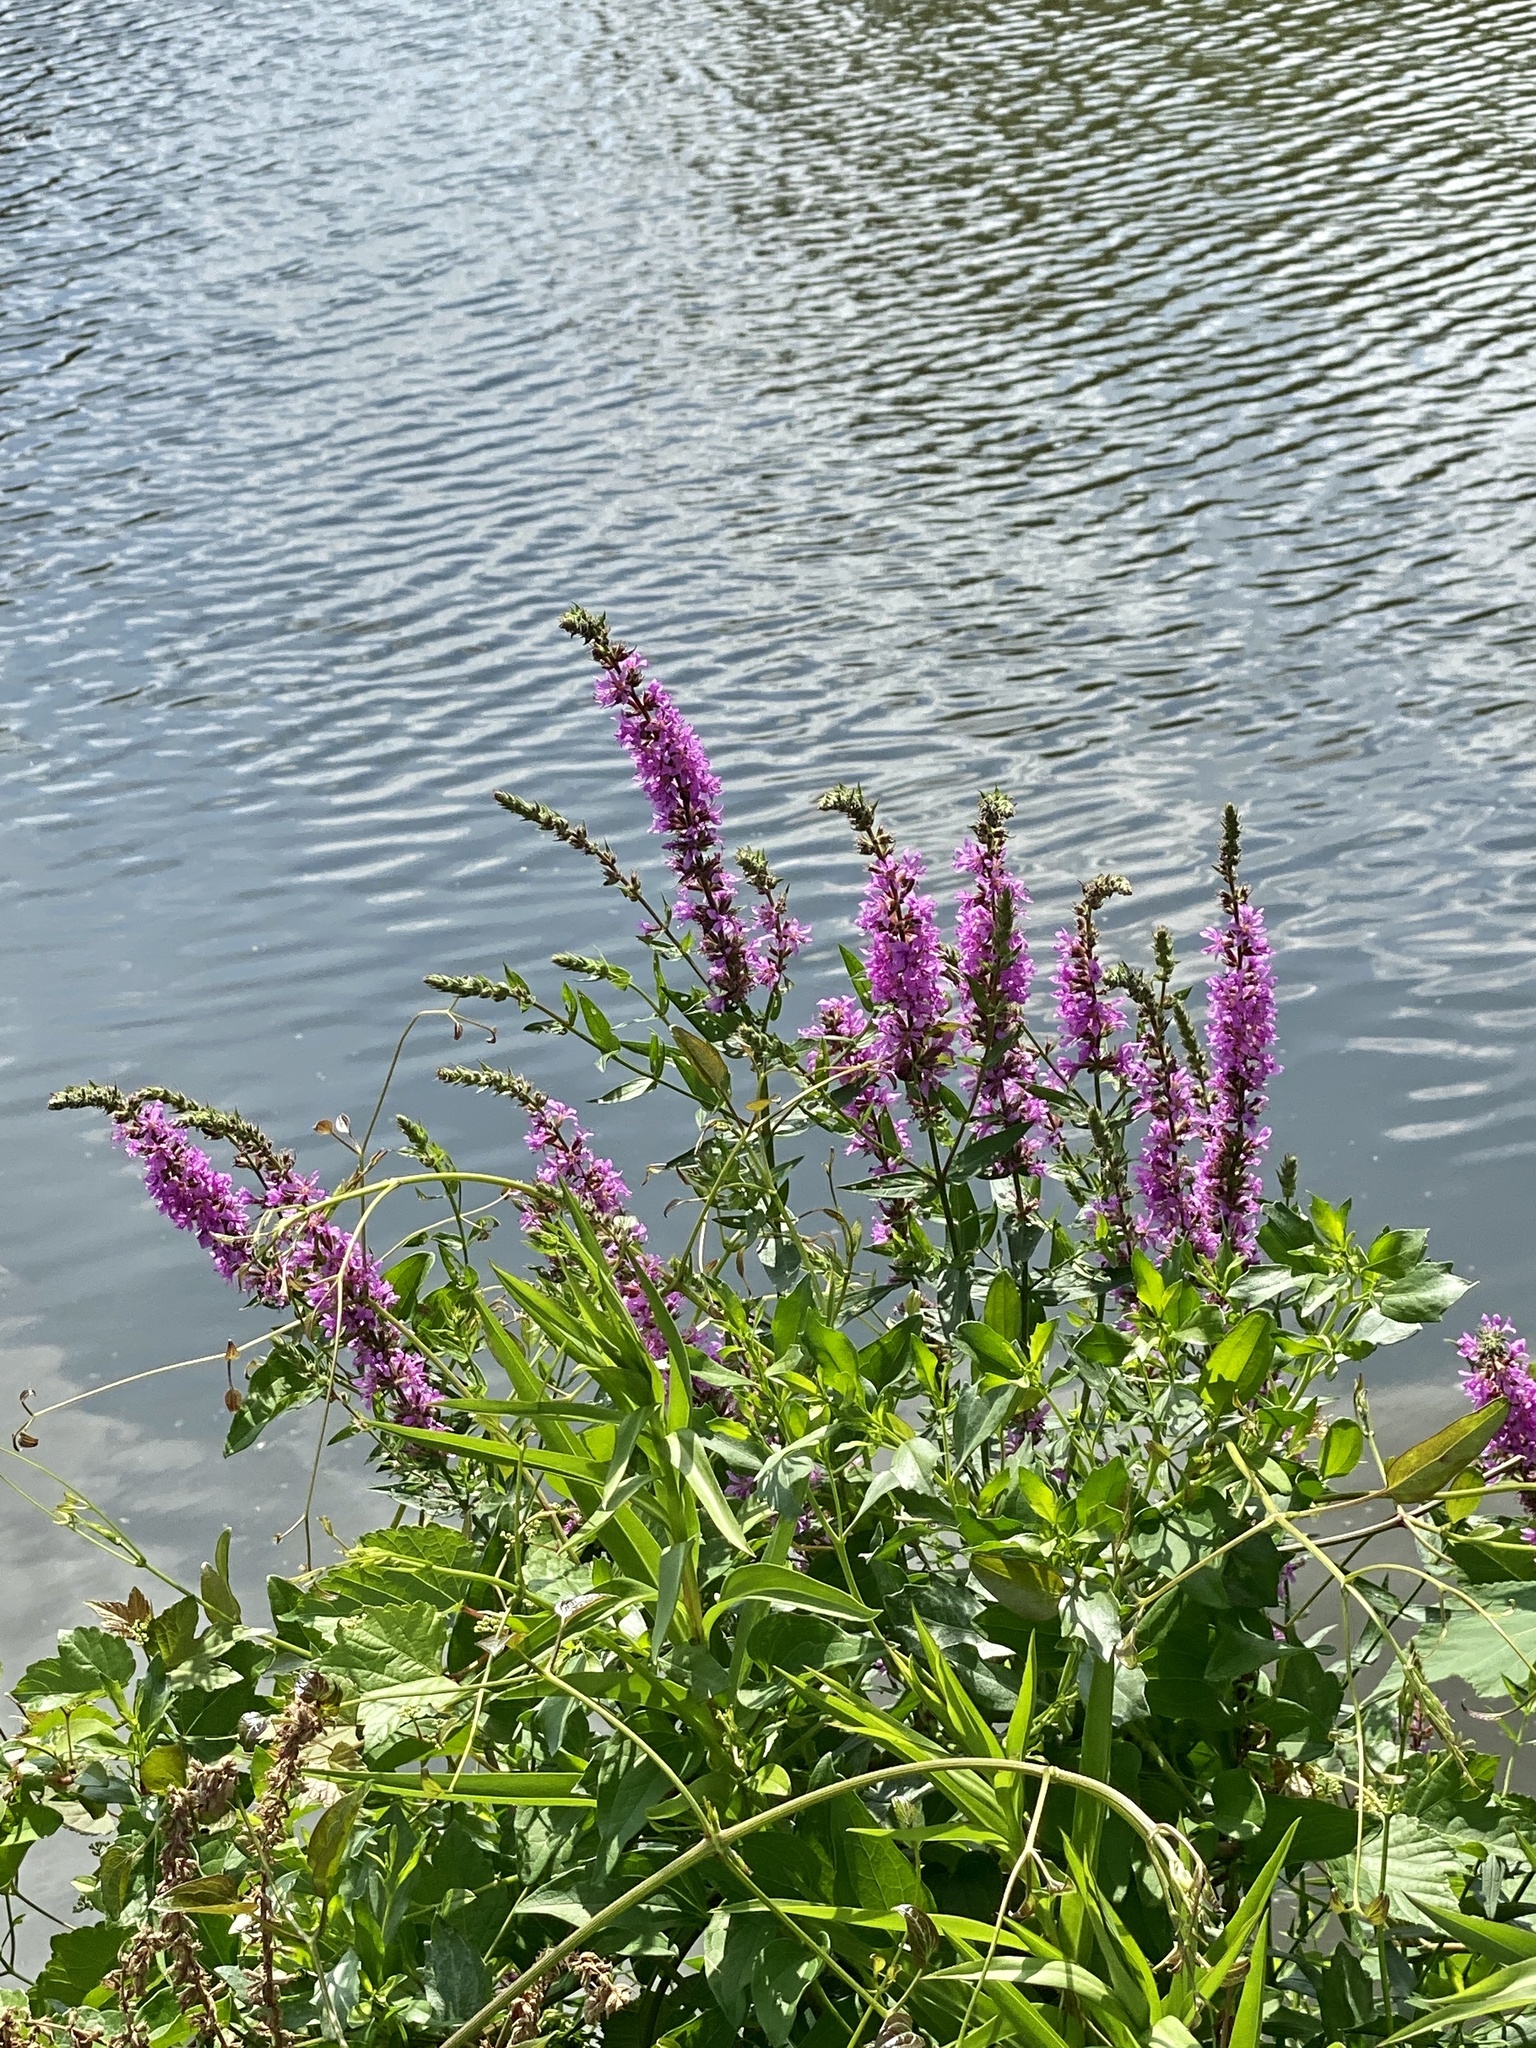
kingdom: Plantae
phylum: Tracheophyta
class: Magnoliopsida
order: Myrtales
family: Lythraceae
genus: Lythrum
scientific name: Lythrum salicaria
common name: Purple loosestrife
